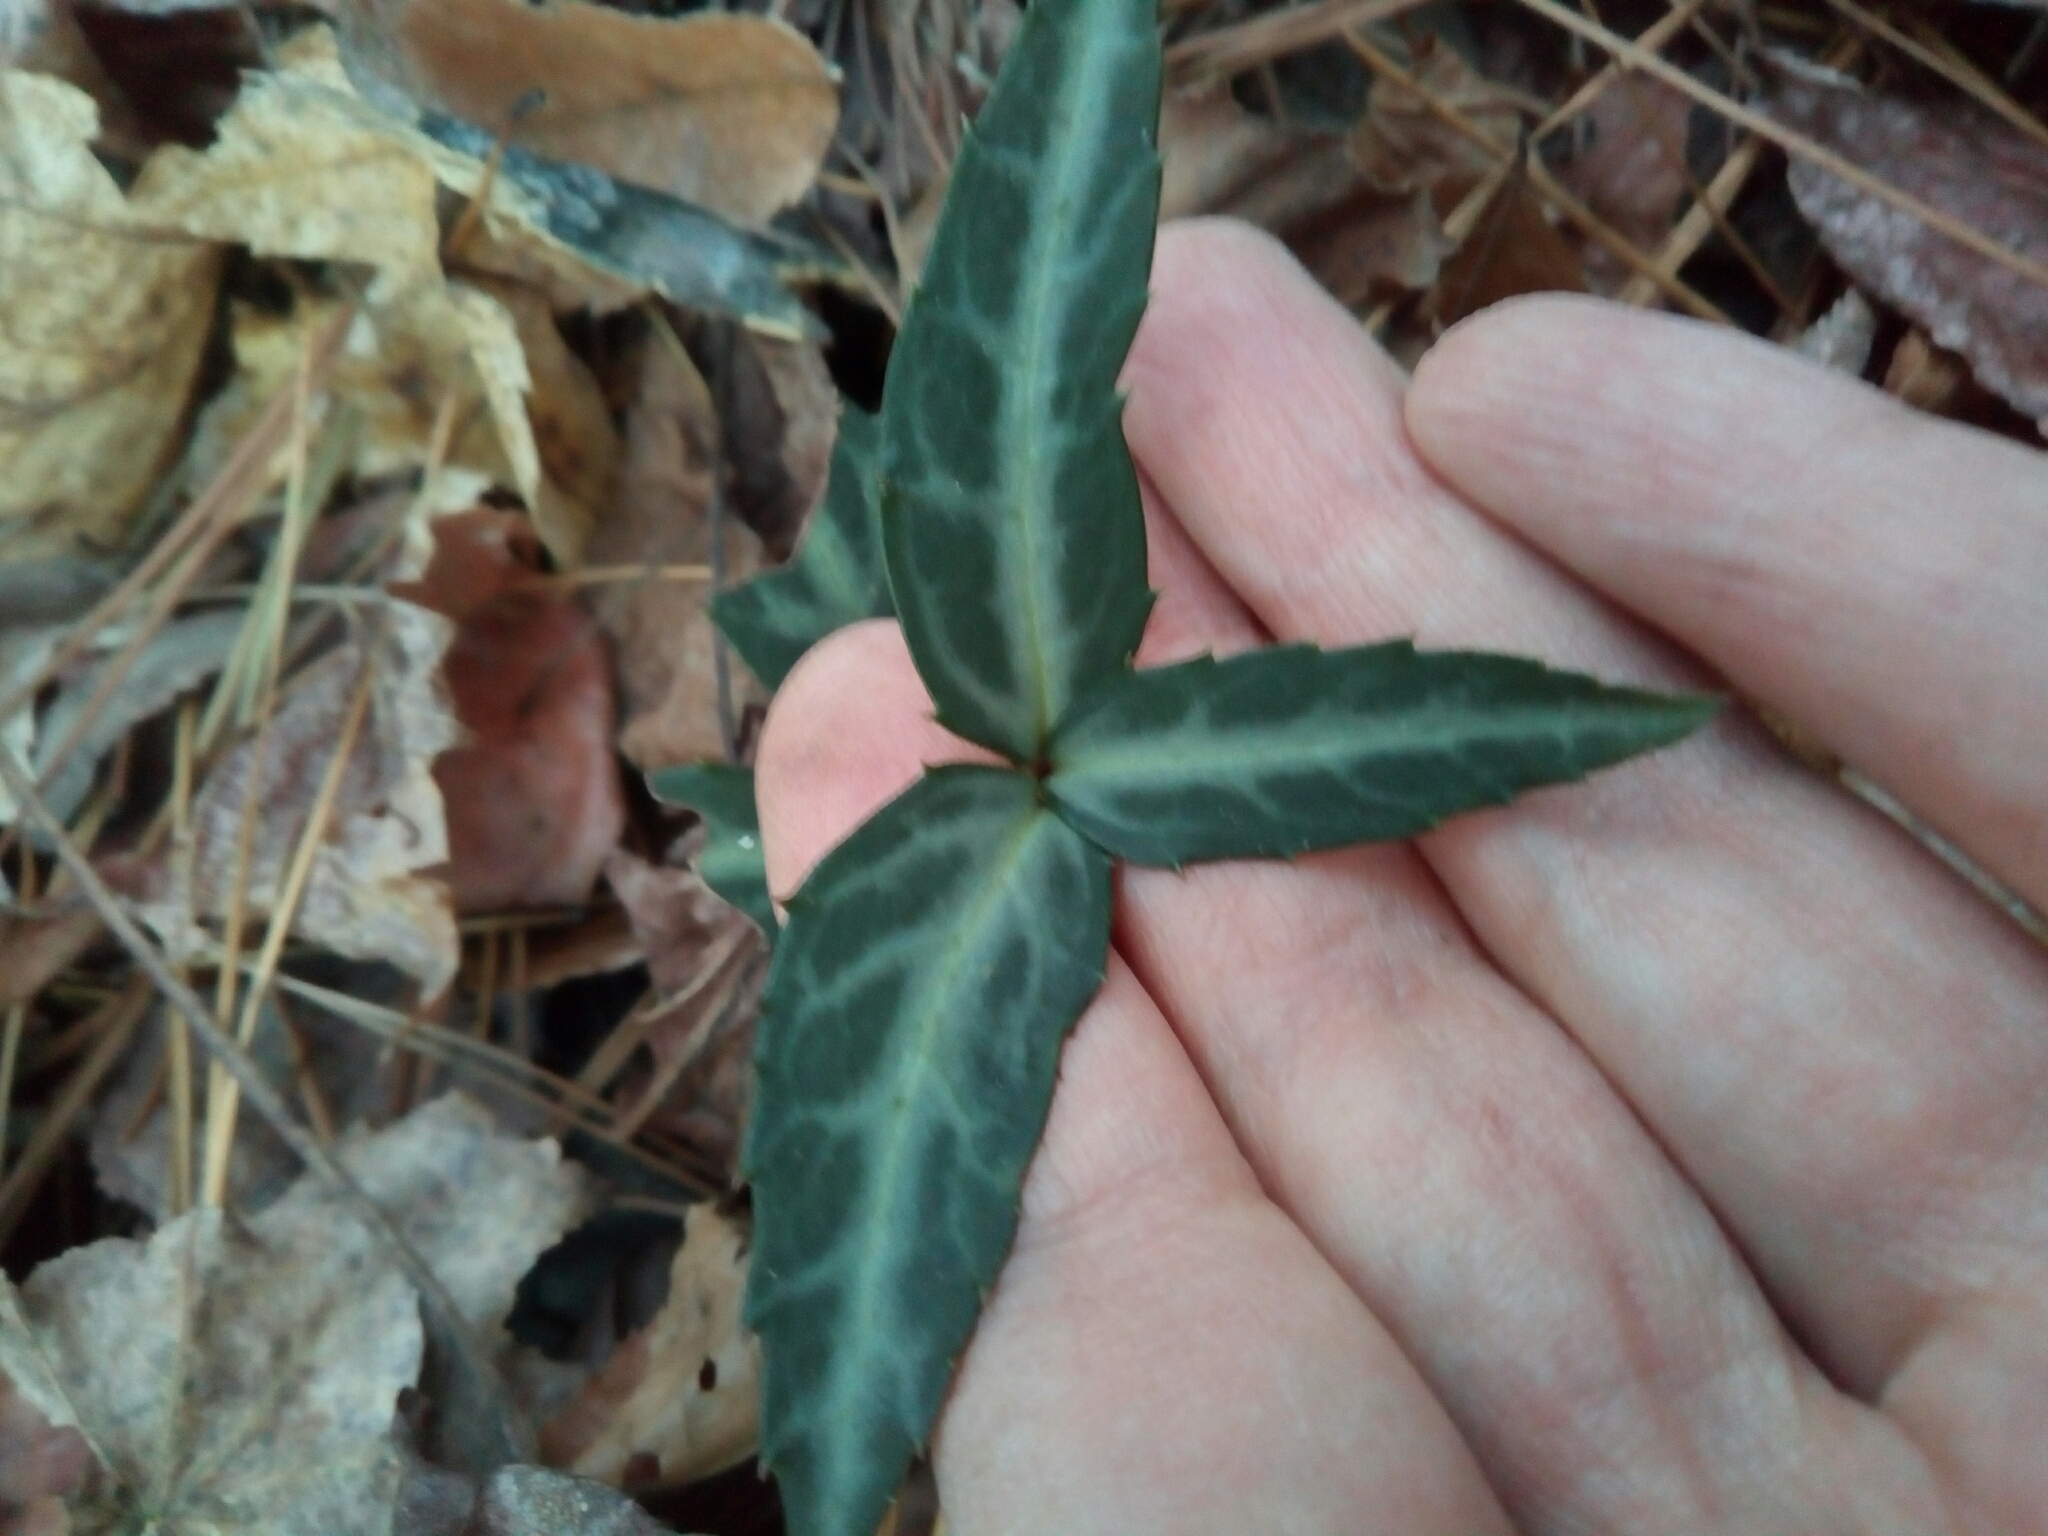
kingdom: Plantae
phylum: Tracheophyta
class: Magnoliopsida
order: Ericales
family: Ericaceae
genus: Chimaphila
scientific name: Chimaphila maculata
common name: Spotted pipsissewa
